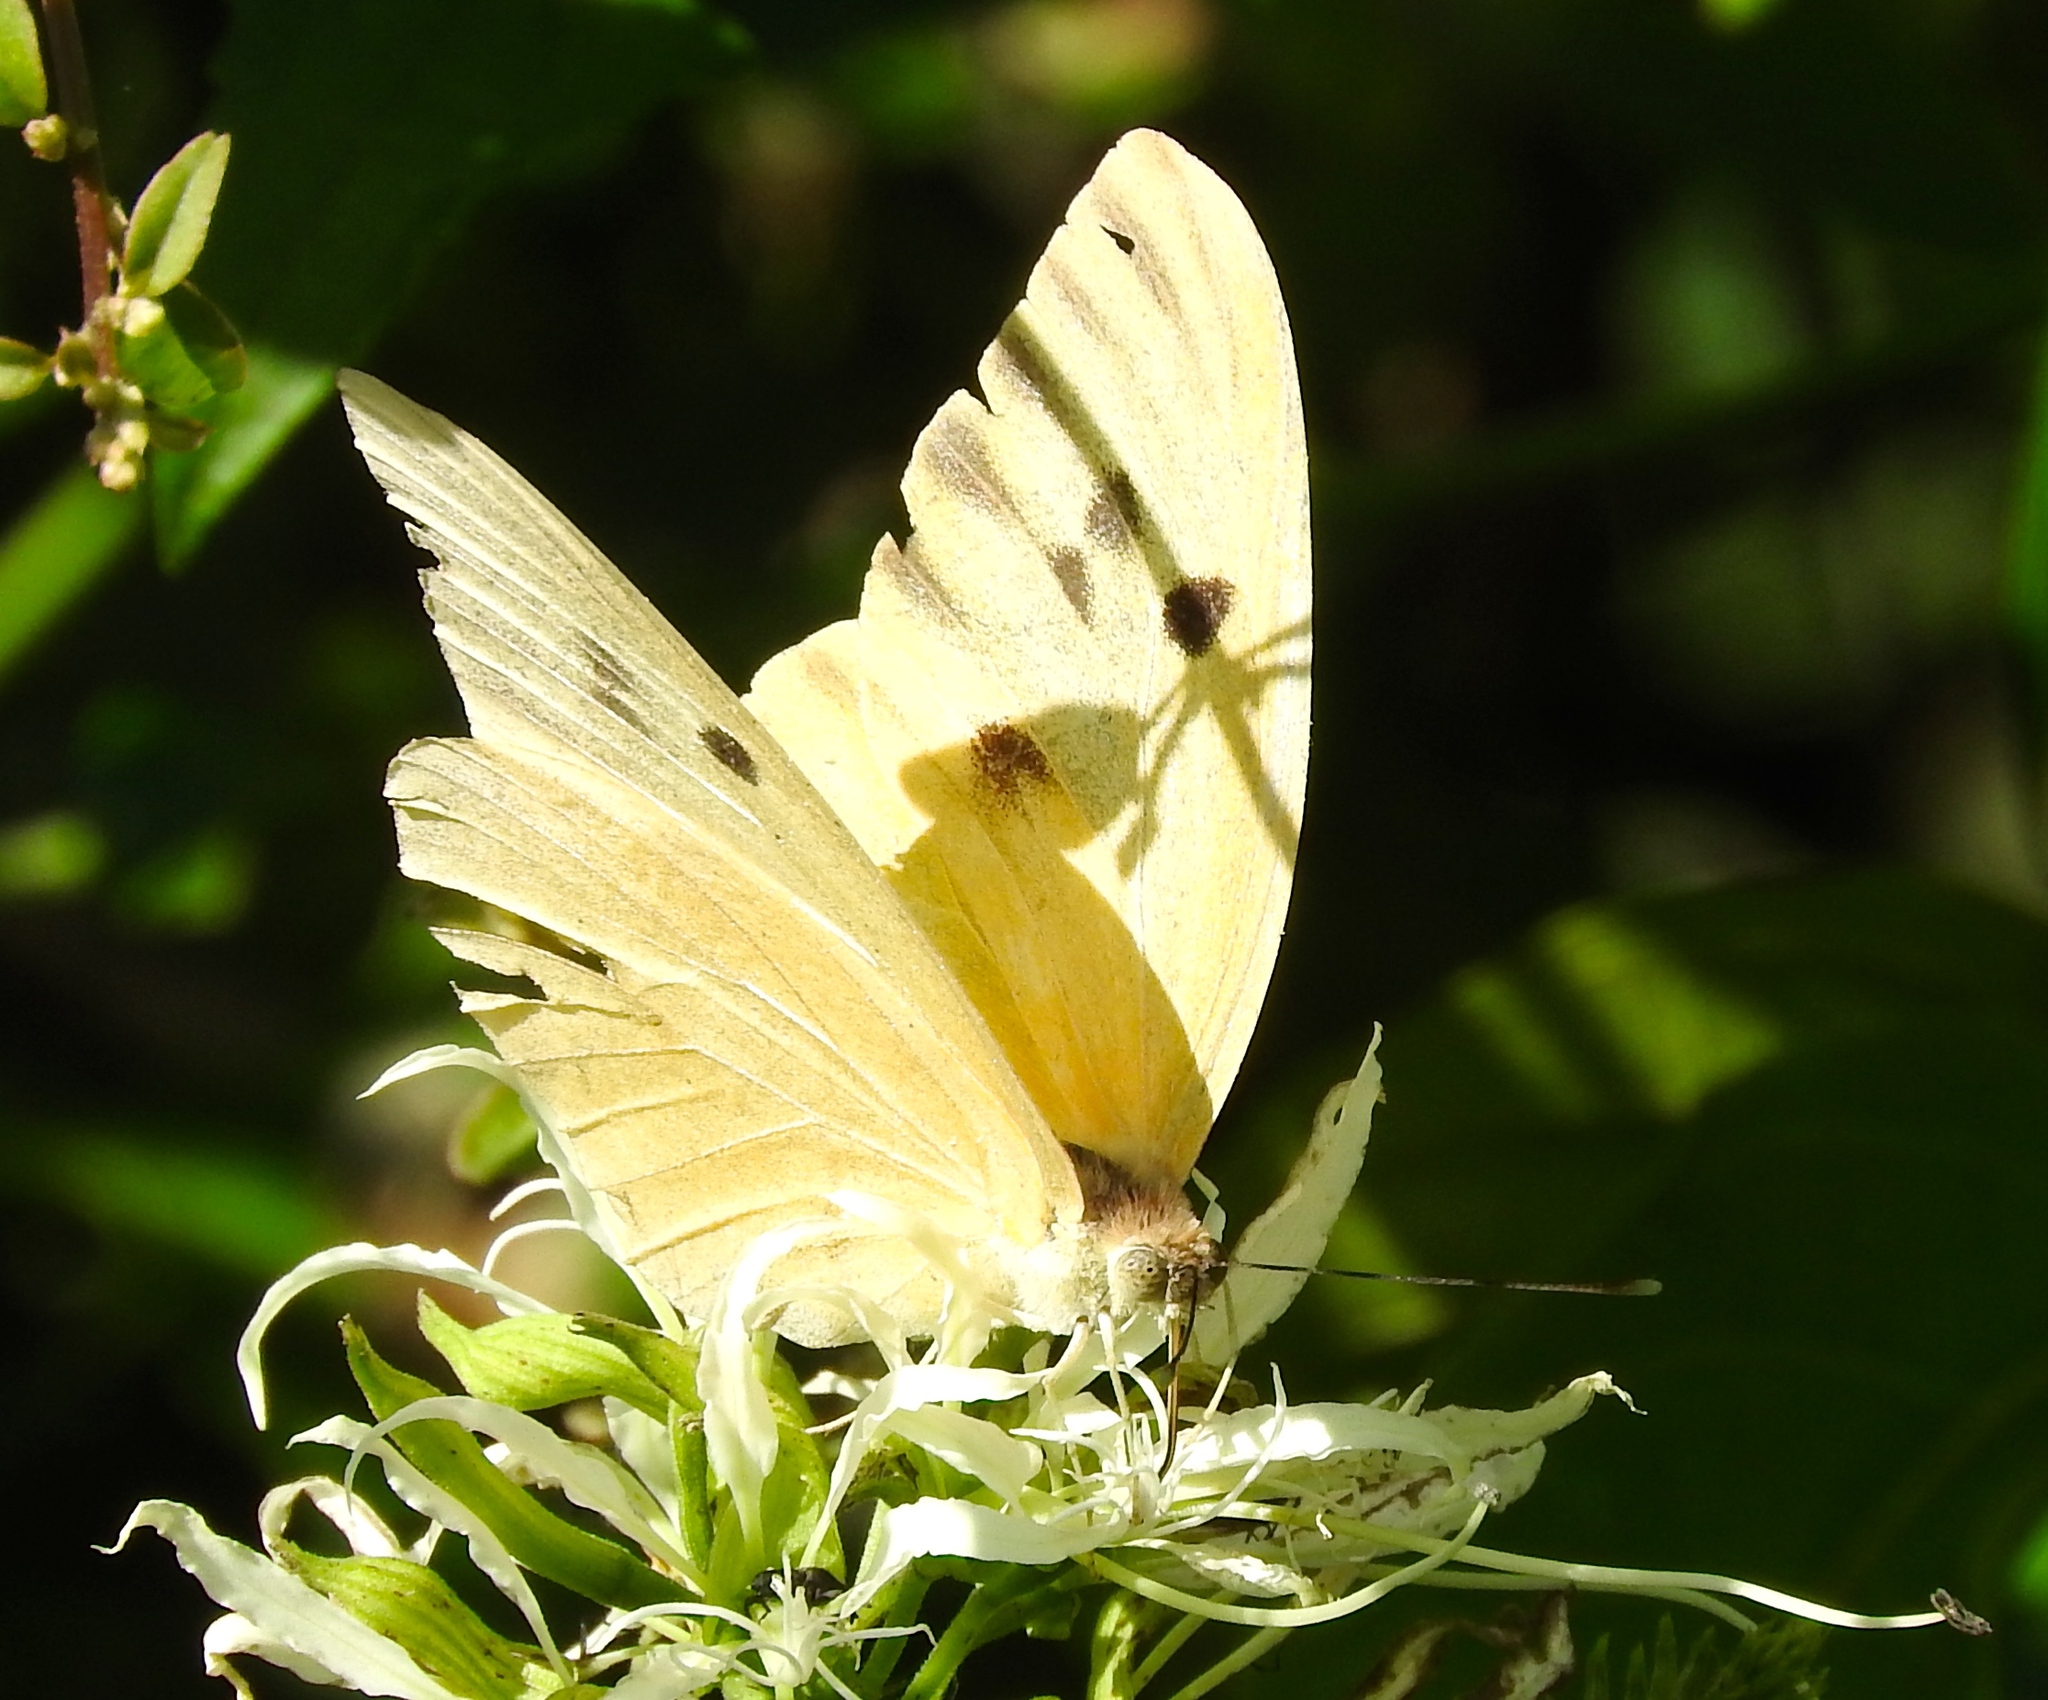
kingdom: Animalia
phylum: Arthropoda
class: Insecta
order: Lepidoptera
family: Pieridae
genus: Ganyra
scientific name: Ganyra josephina
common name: Giant white
